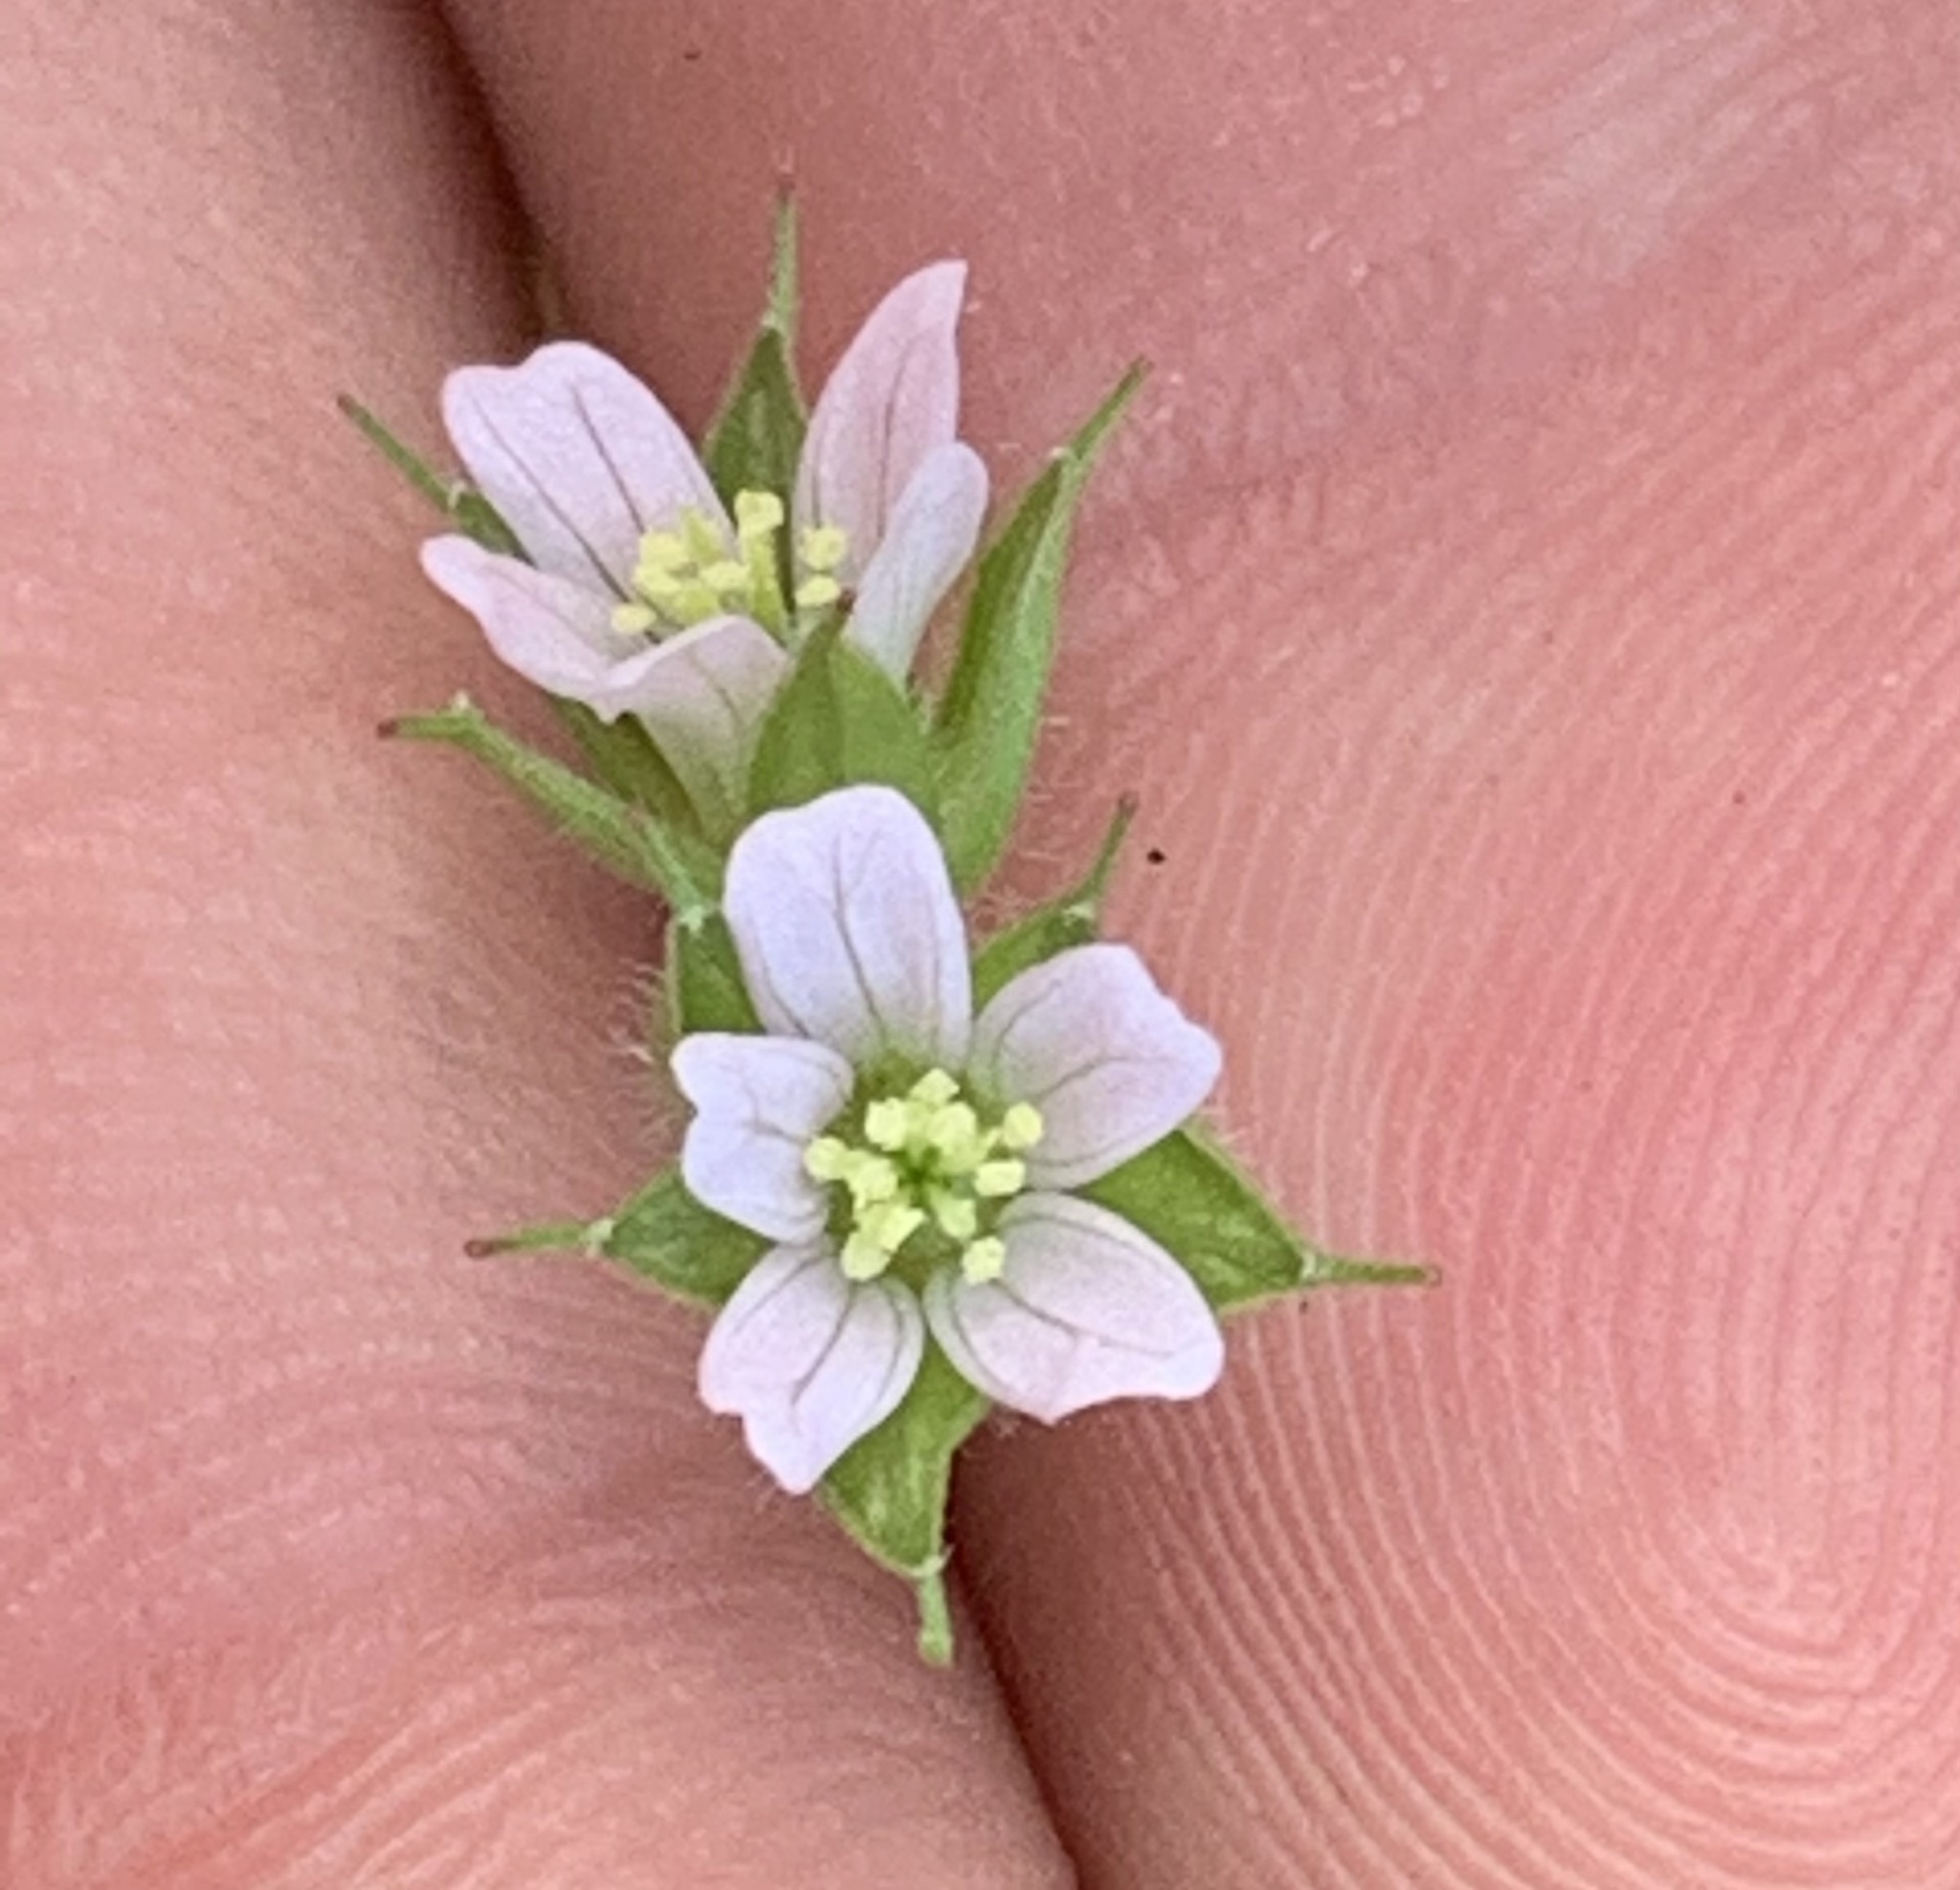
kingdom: Plantae
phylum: Tracheophyta
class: Magnoliopsida
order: Geraniales
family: Geraniaceae
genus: Geranium
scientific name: Geranium carolinianum
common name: Carolina crane's-bill
